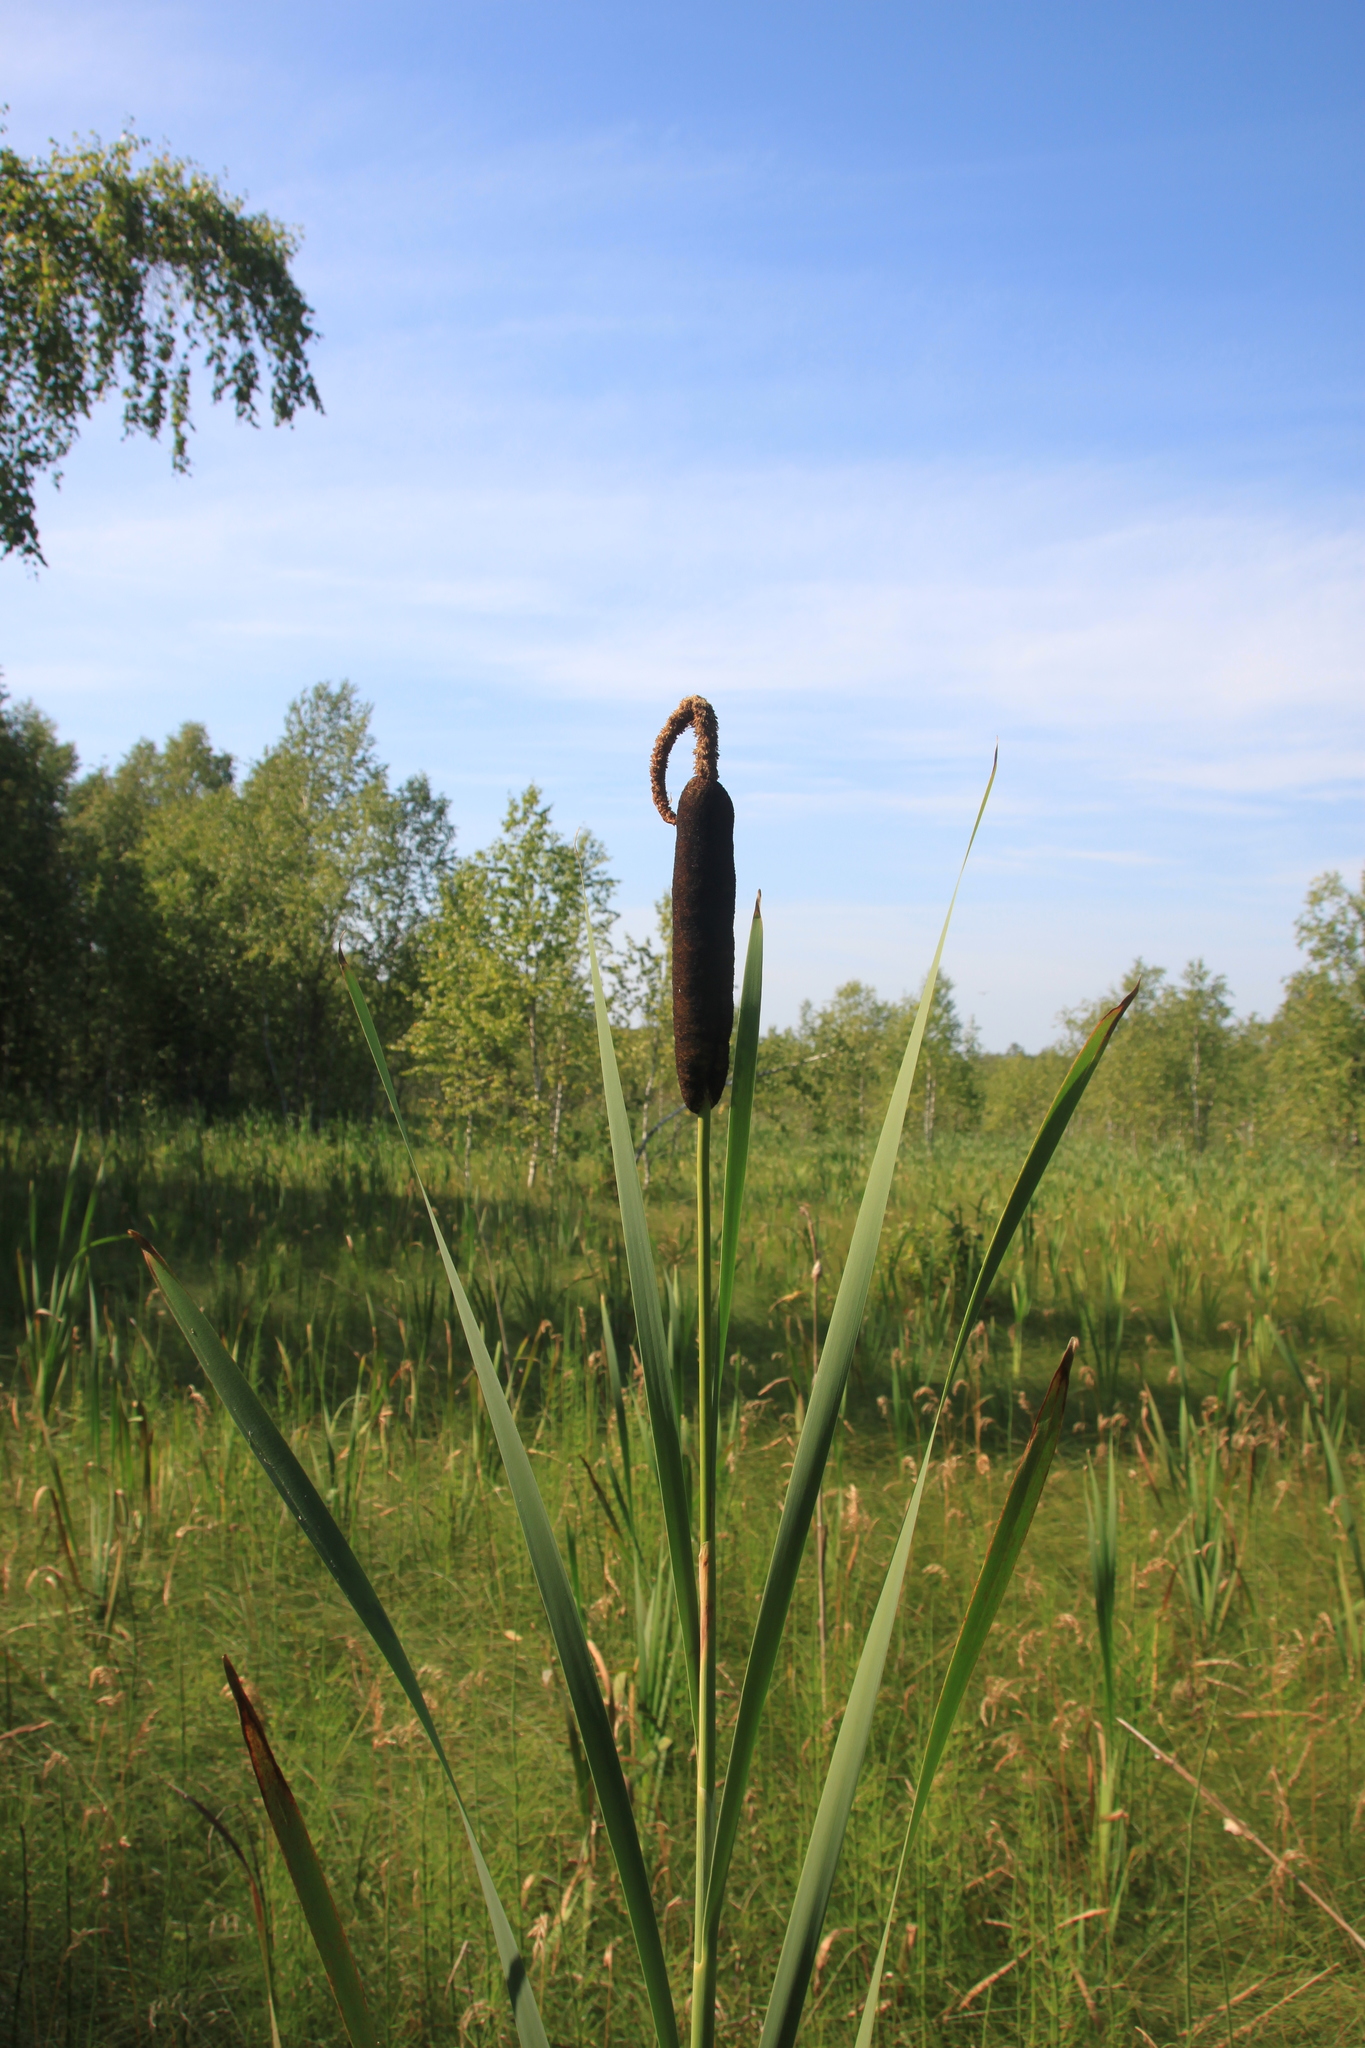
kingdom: Plantae
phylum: Tracheophyta
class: Liliopsida
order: Poales
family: Typhaceae
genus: Typha
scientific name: Typha latifolia
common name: Broadleaf cattail
